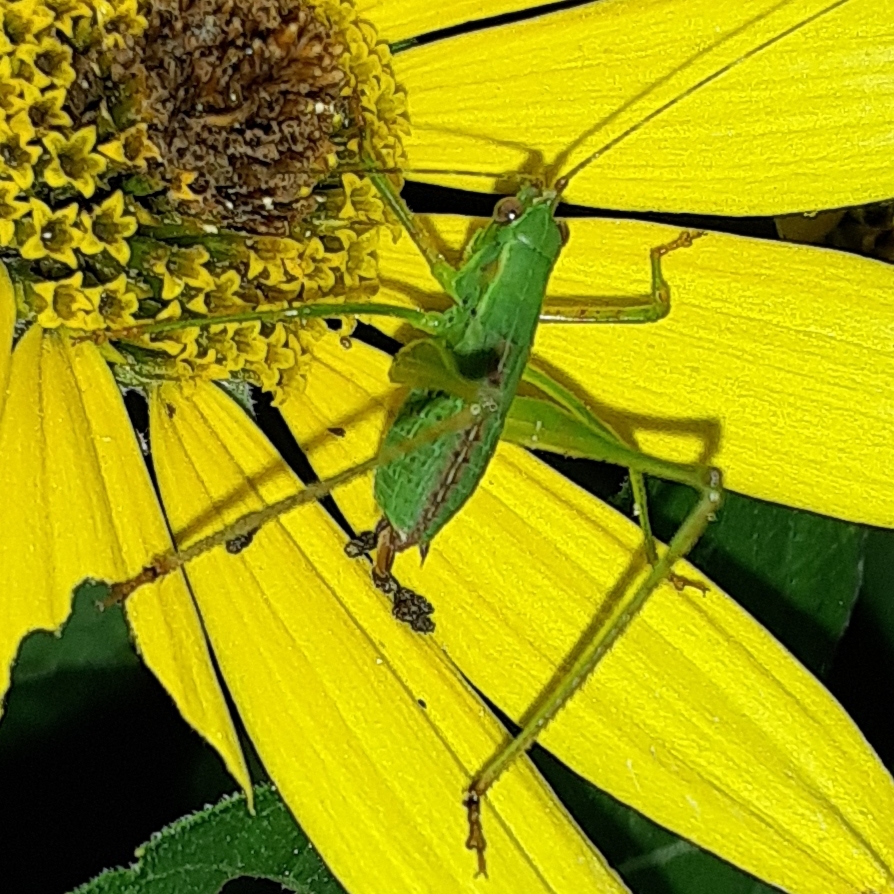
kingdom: Animalia
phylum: Arthropoda
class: Insecta
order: Orthoptera
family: Tettigoniidae
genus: Scudderia
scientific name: Scudderia furcata
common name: Fork-tailed bush katydid
